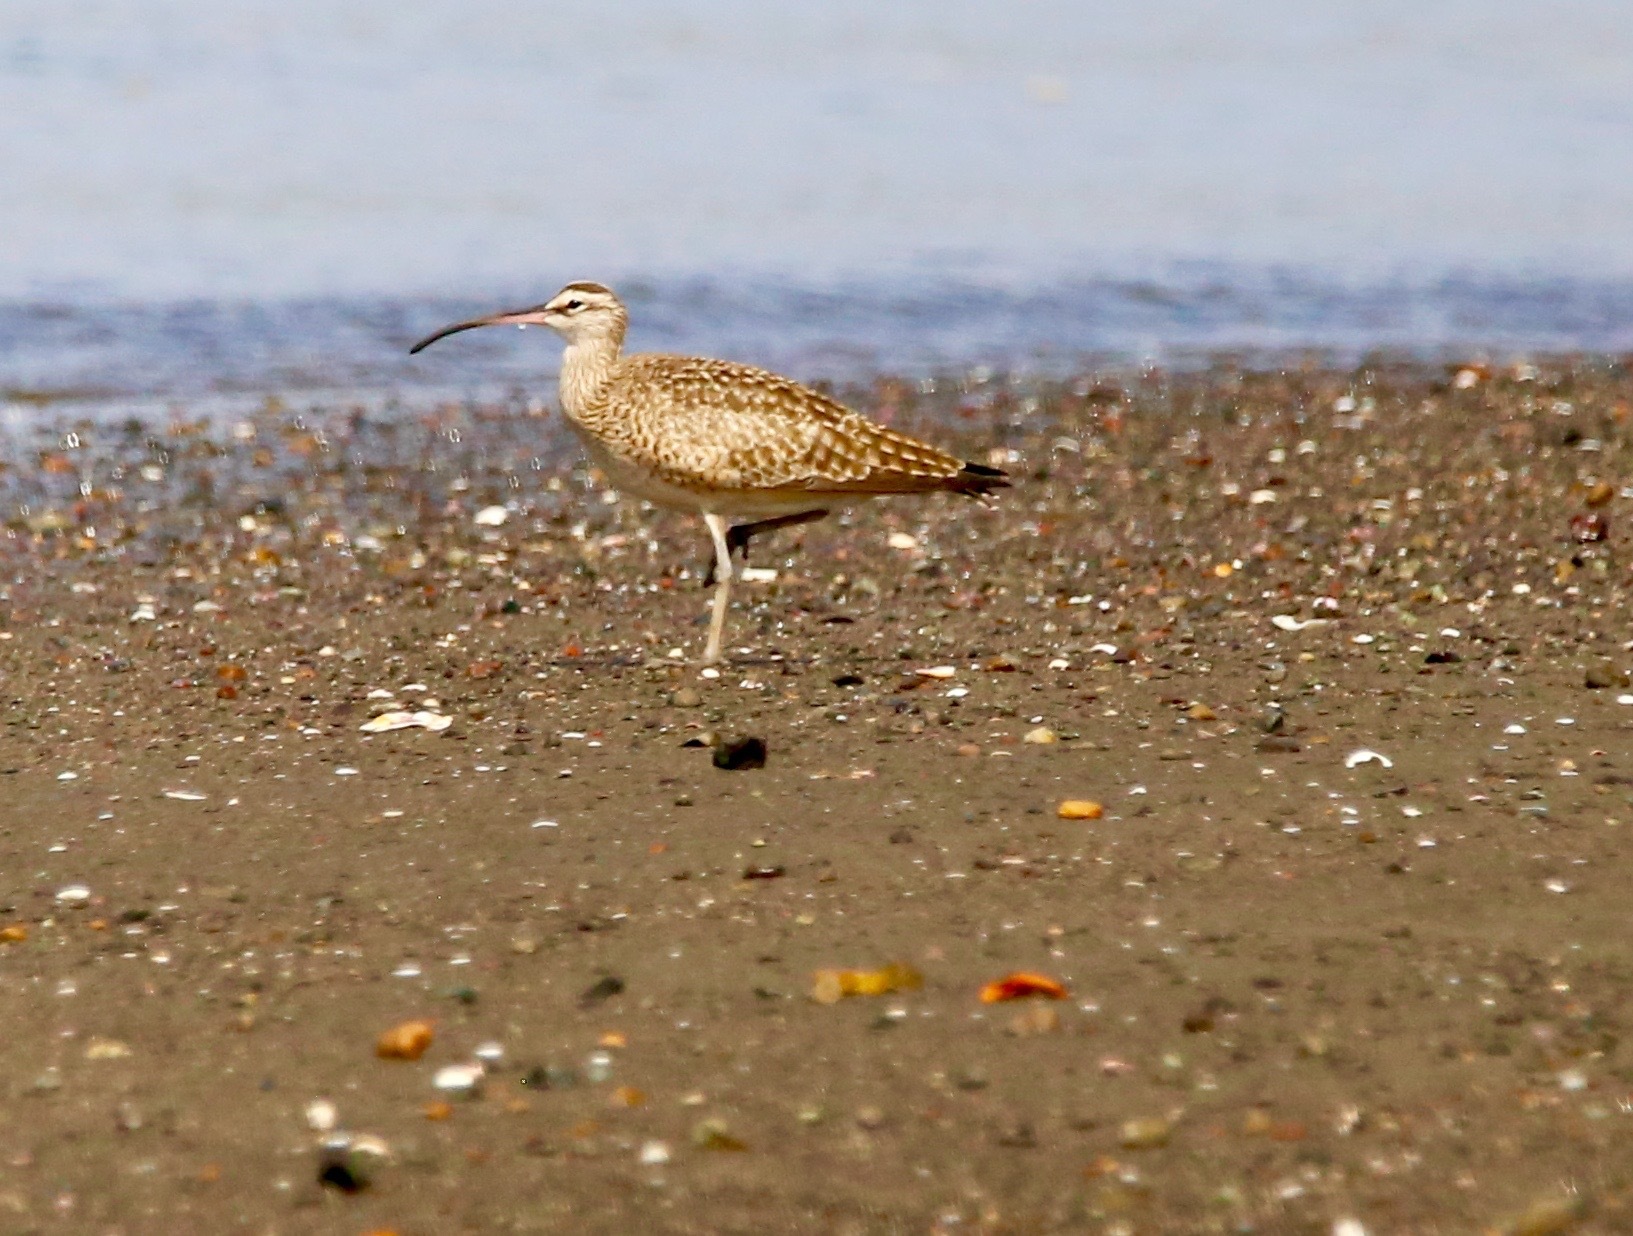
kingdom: Animalia
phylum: Chordata
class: Aves
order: Charadriiformes
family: Scolopacidae
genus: Numenius
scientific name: Numenius phaeopus
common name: Whimbrel
